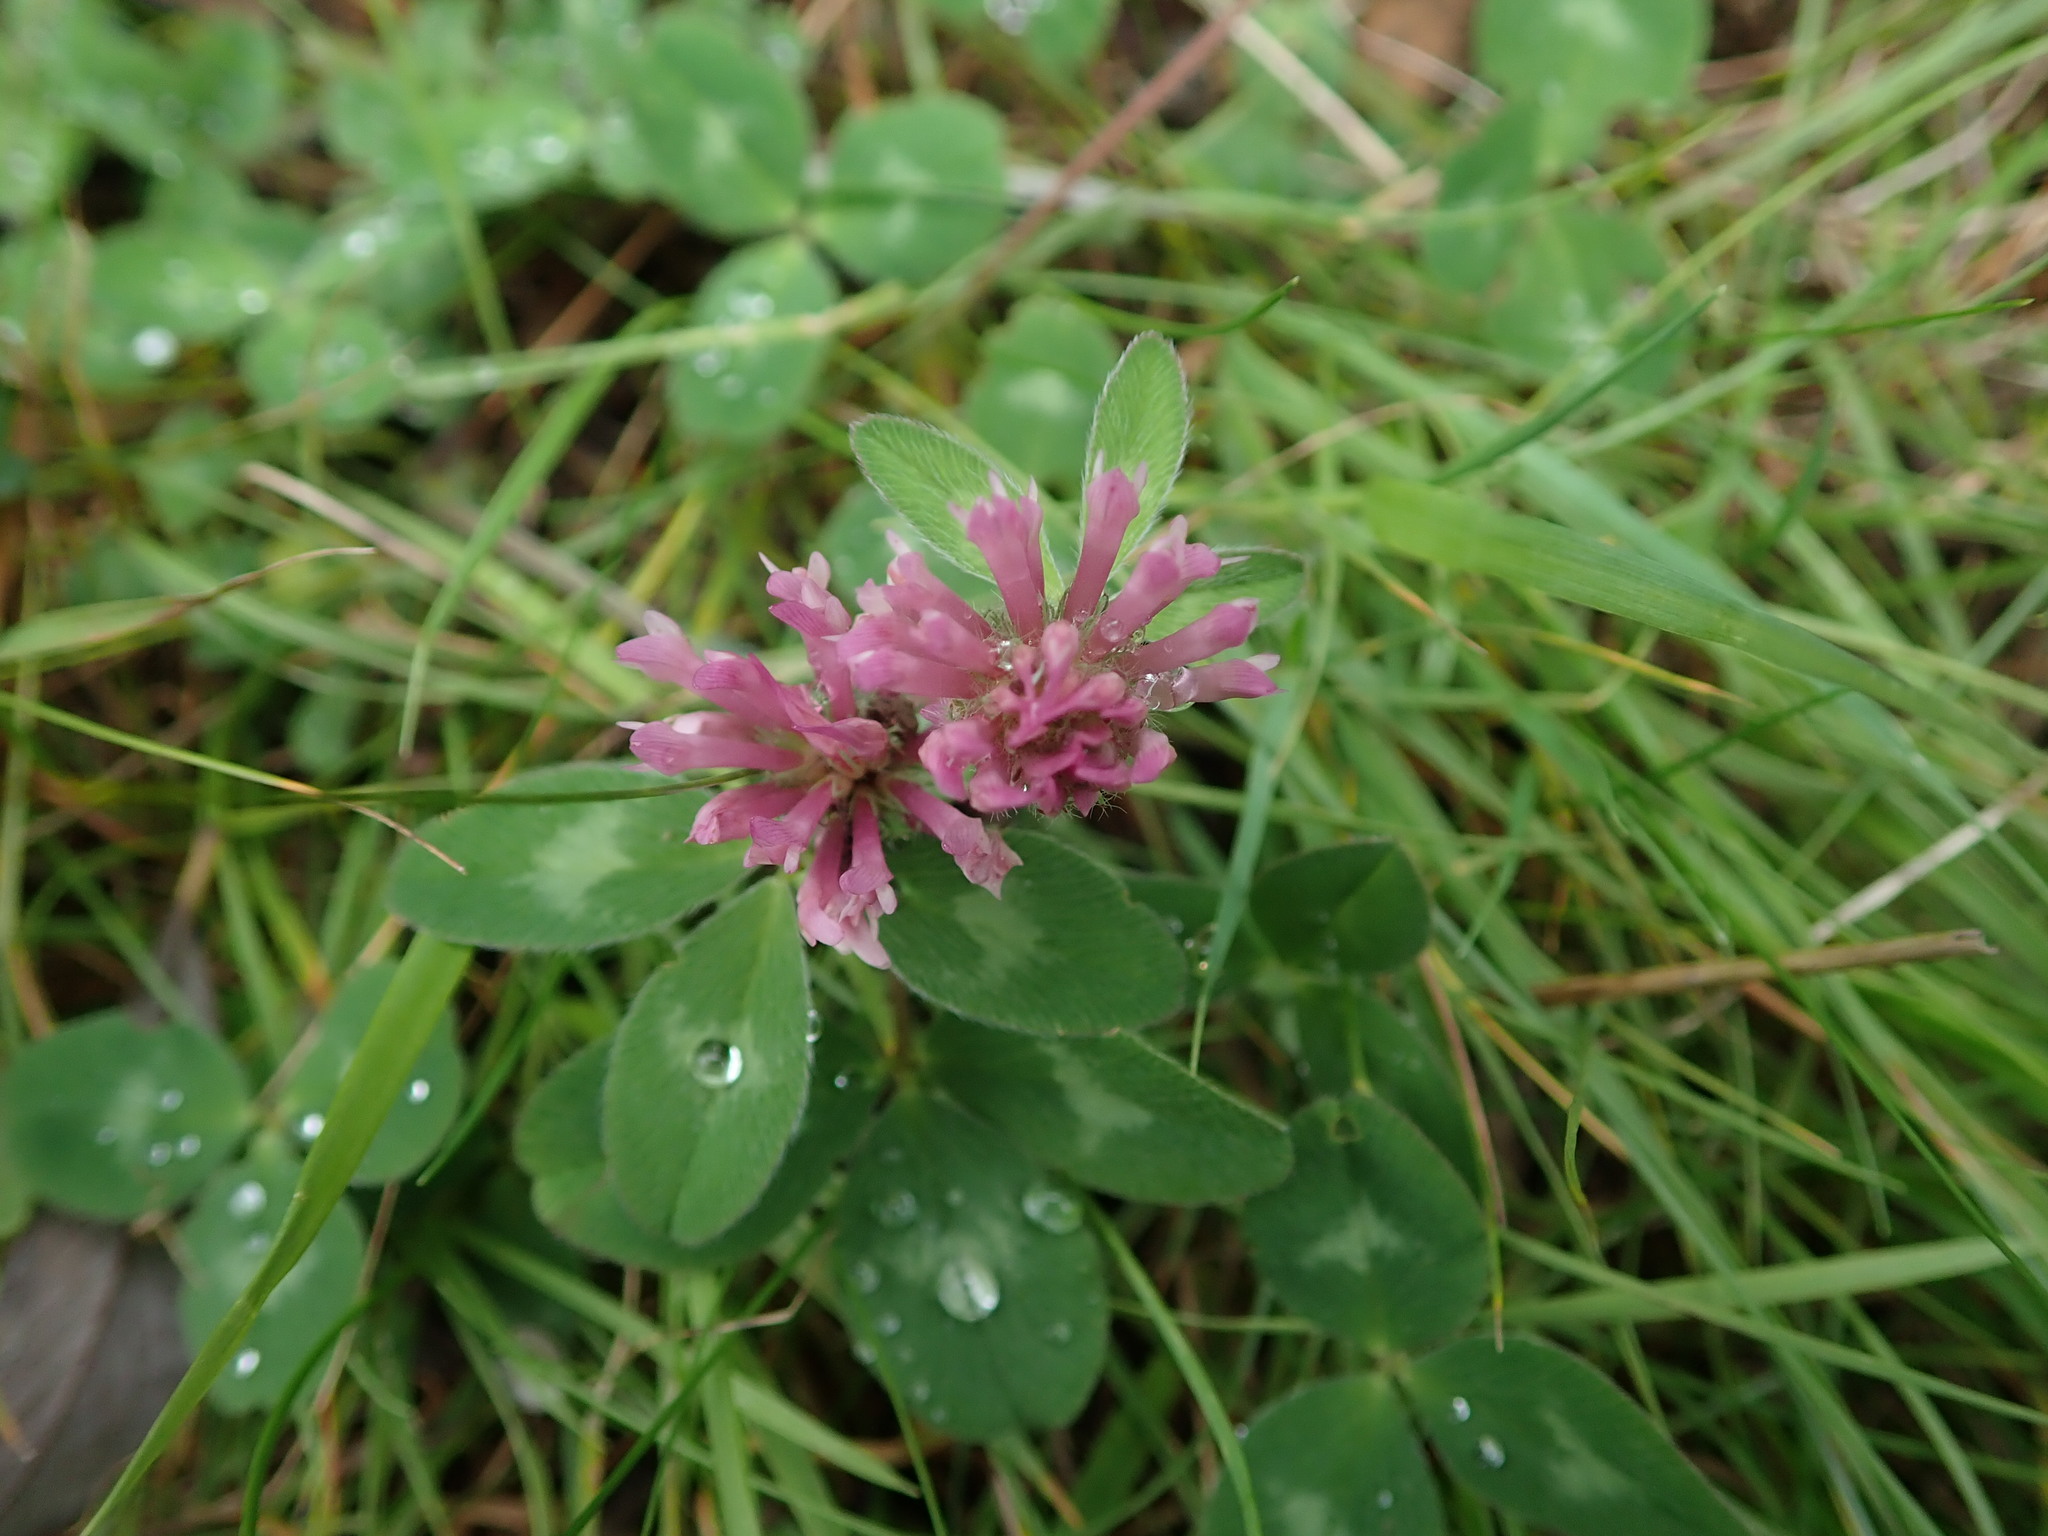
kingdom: Plantae
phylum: Tracheophyta
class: Magnoliopsida
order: Fabales
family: Fabaceae
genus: Trifolium
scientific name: Trifolium pratense
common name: Red clover
